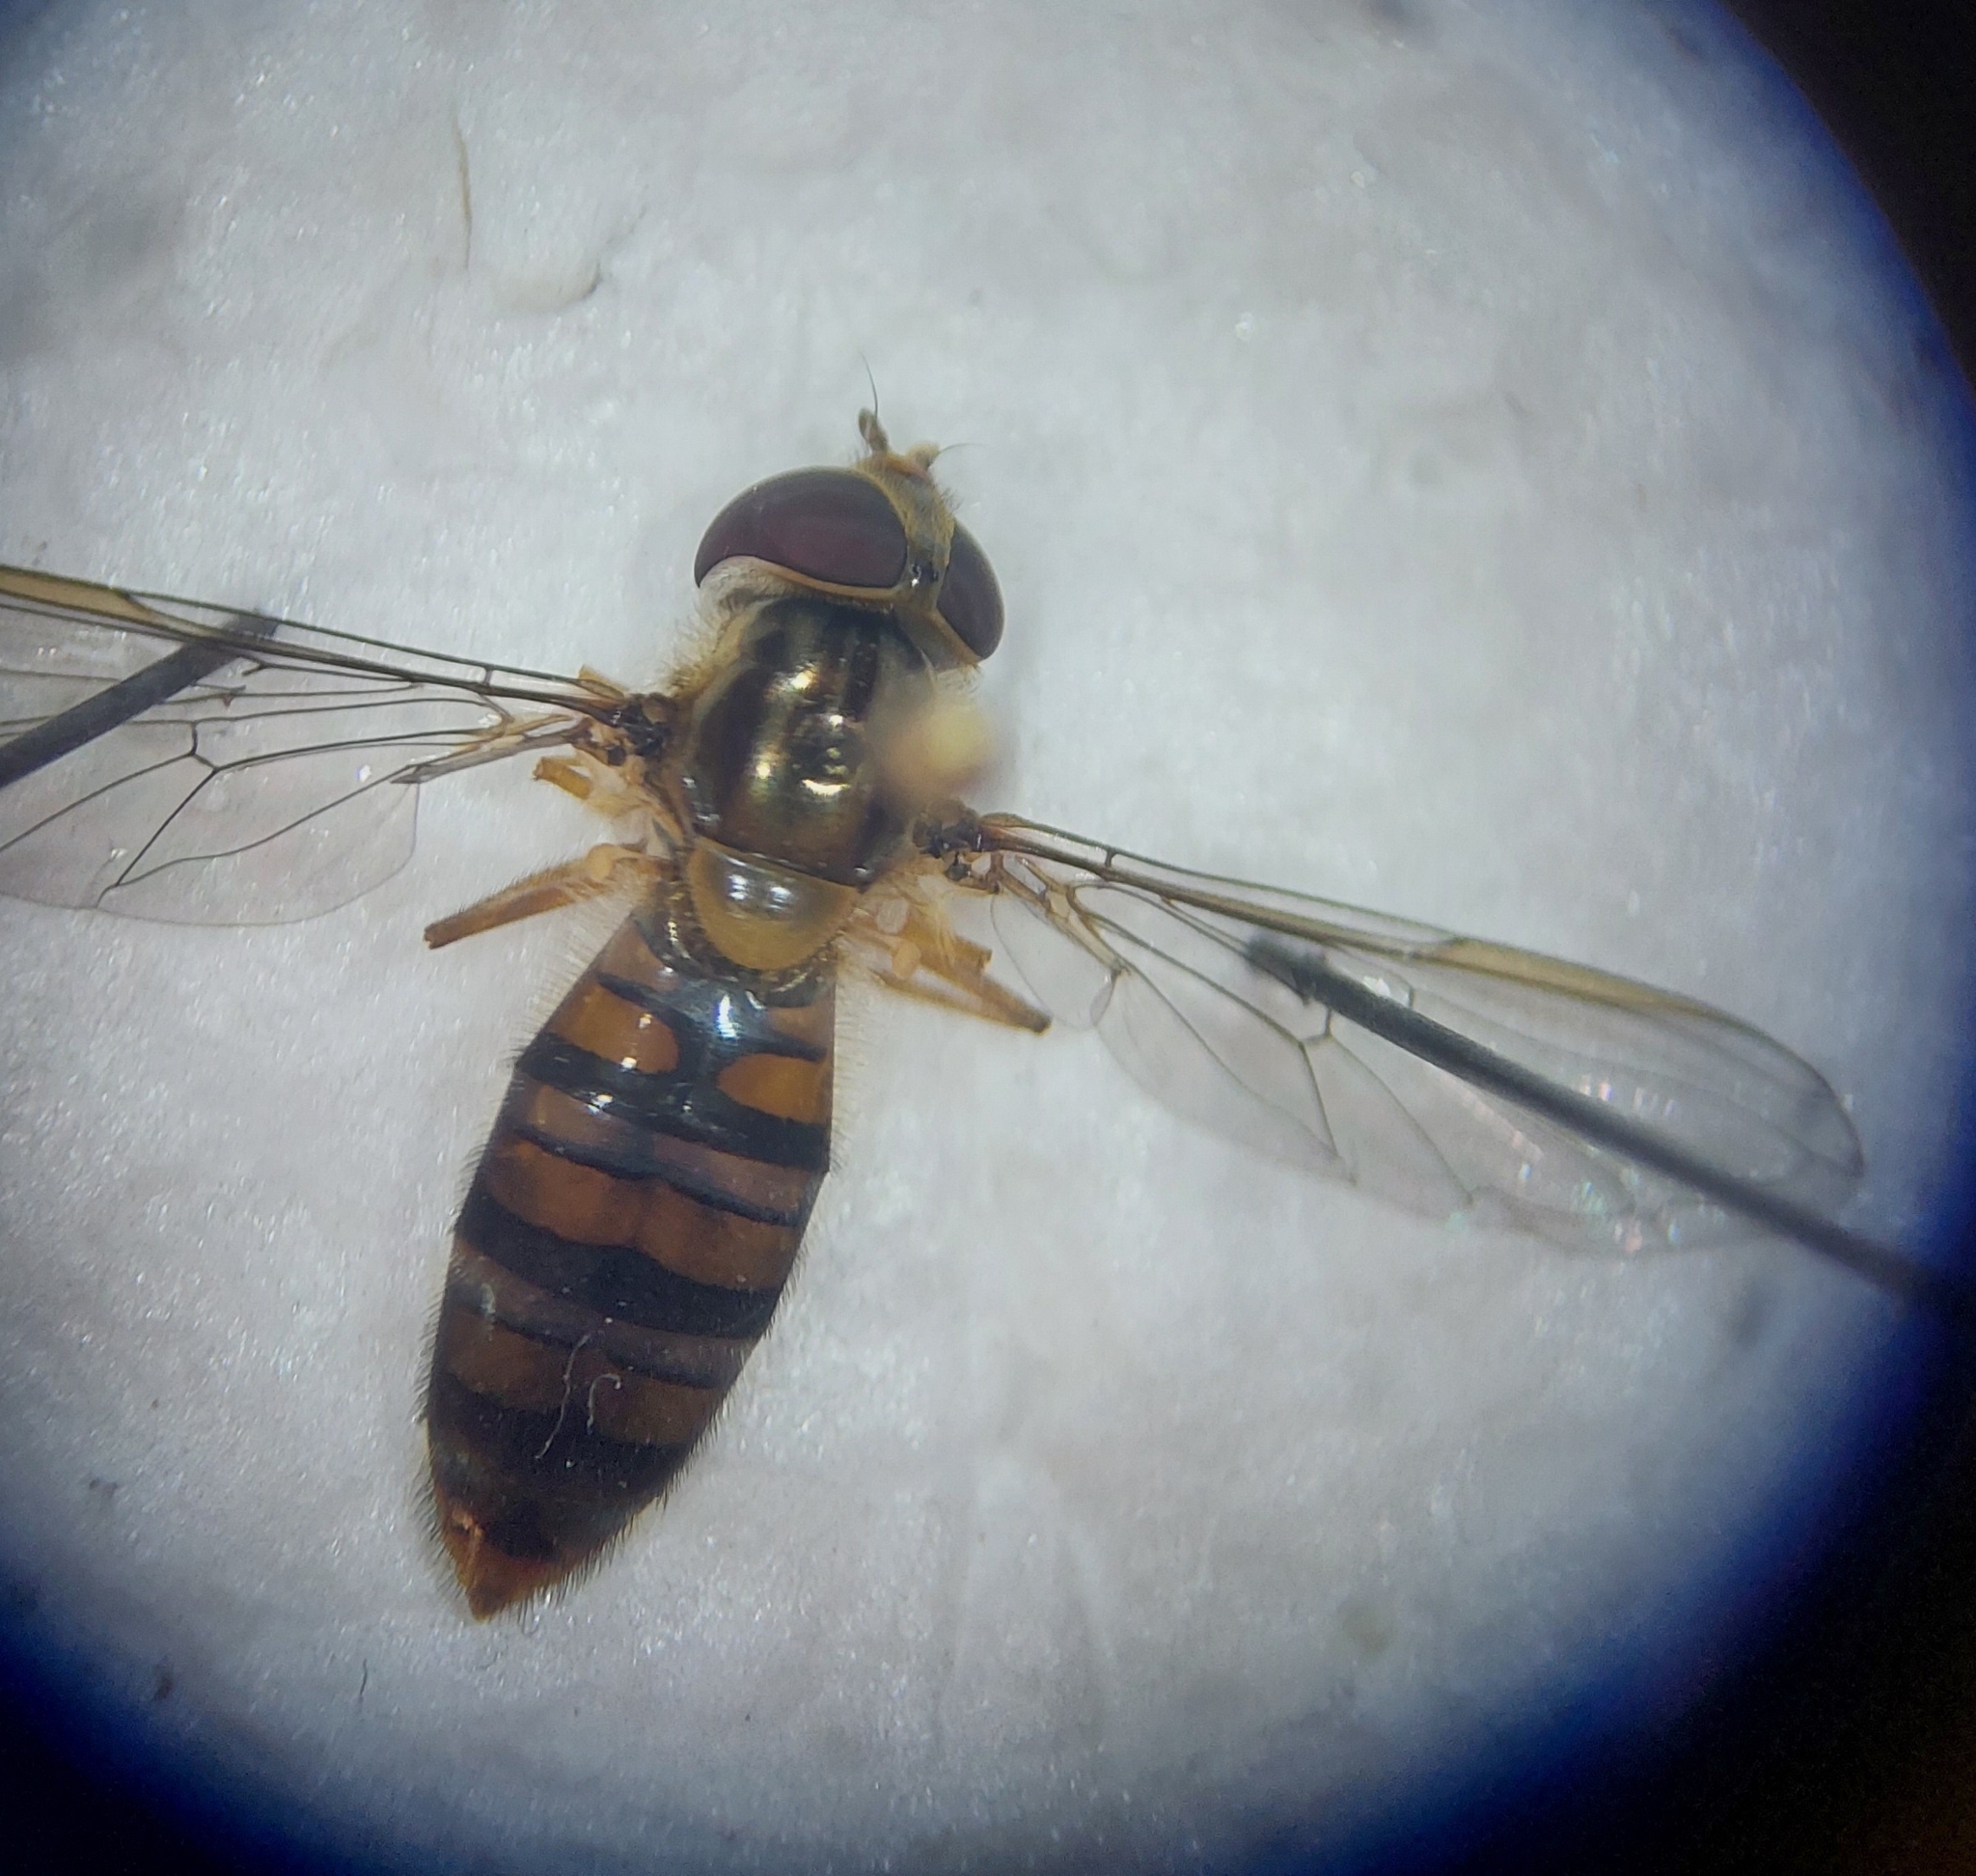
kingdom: Animalia
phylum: Arthropoda
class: Insecta
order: Diptera
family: Syrphidae
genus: Episyrphus
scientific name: Episyrphus balteatus
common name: Marmalade hoverfly
